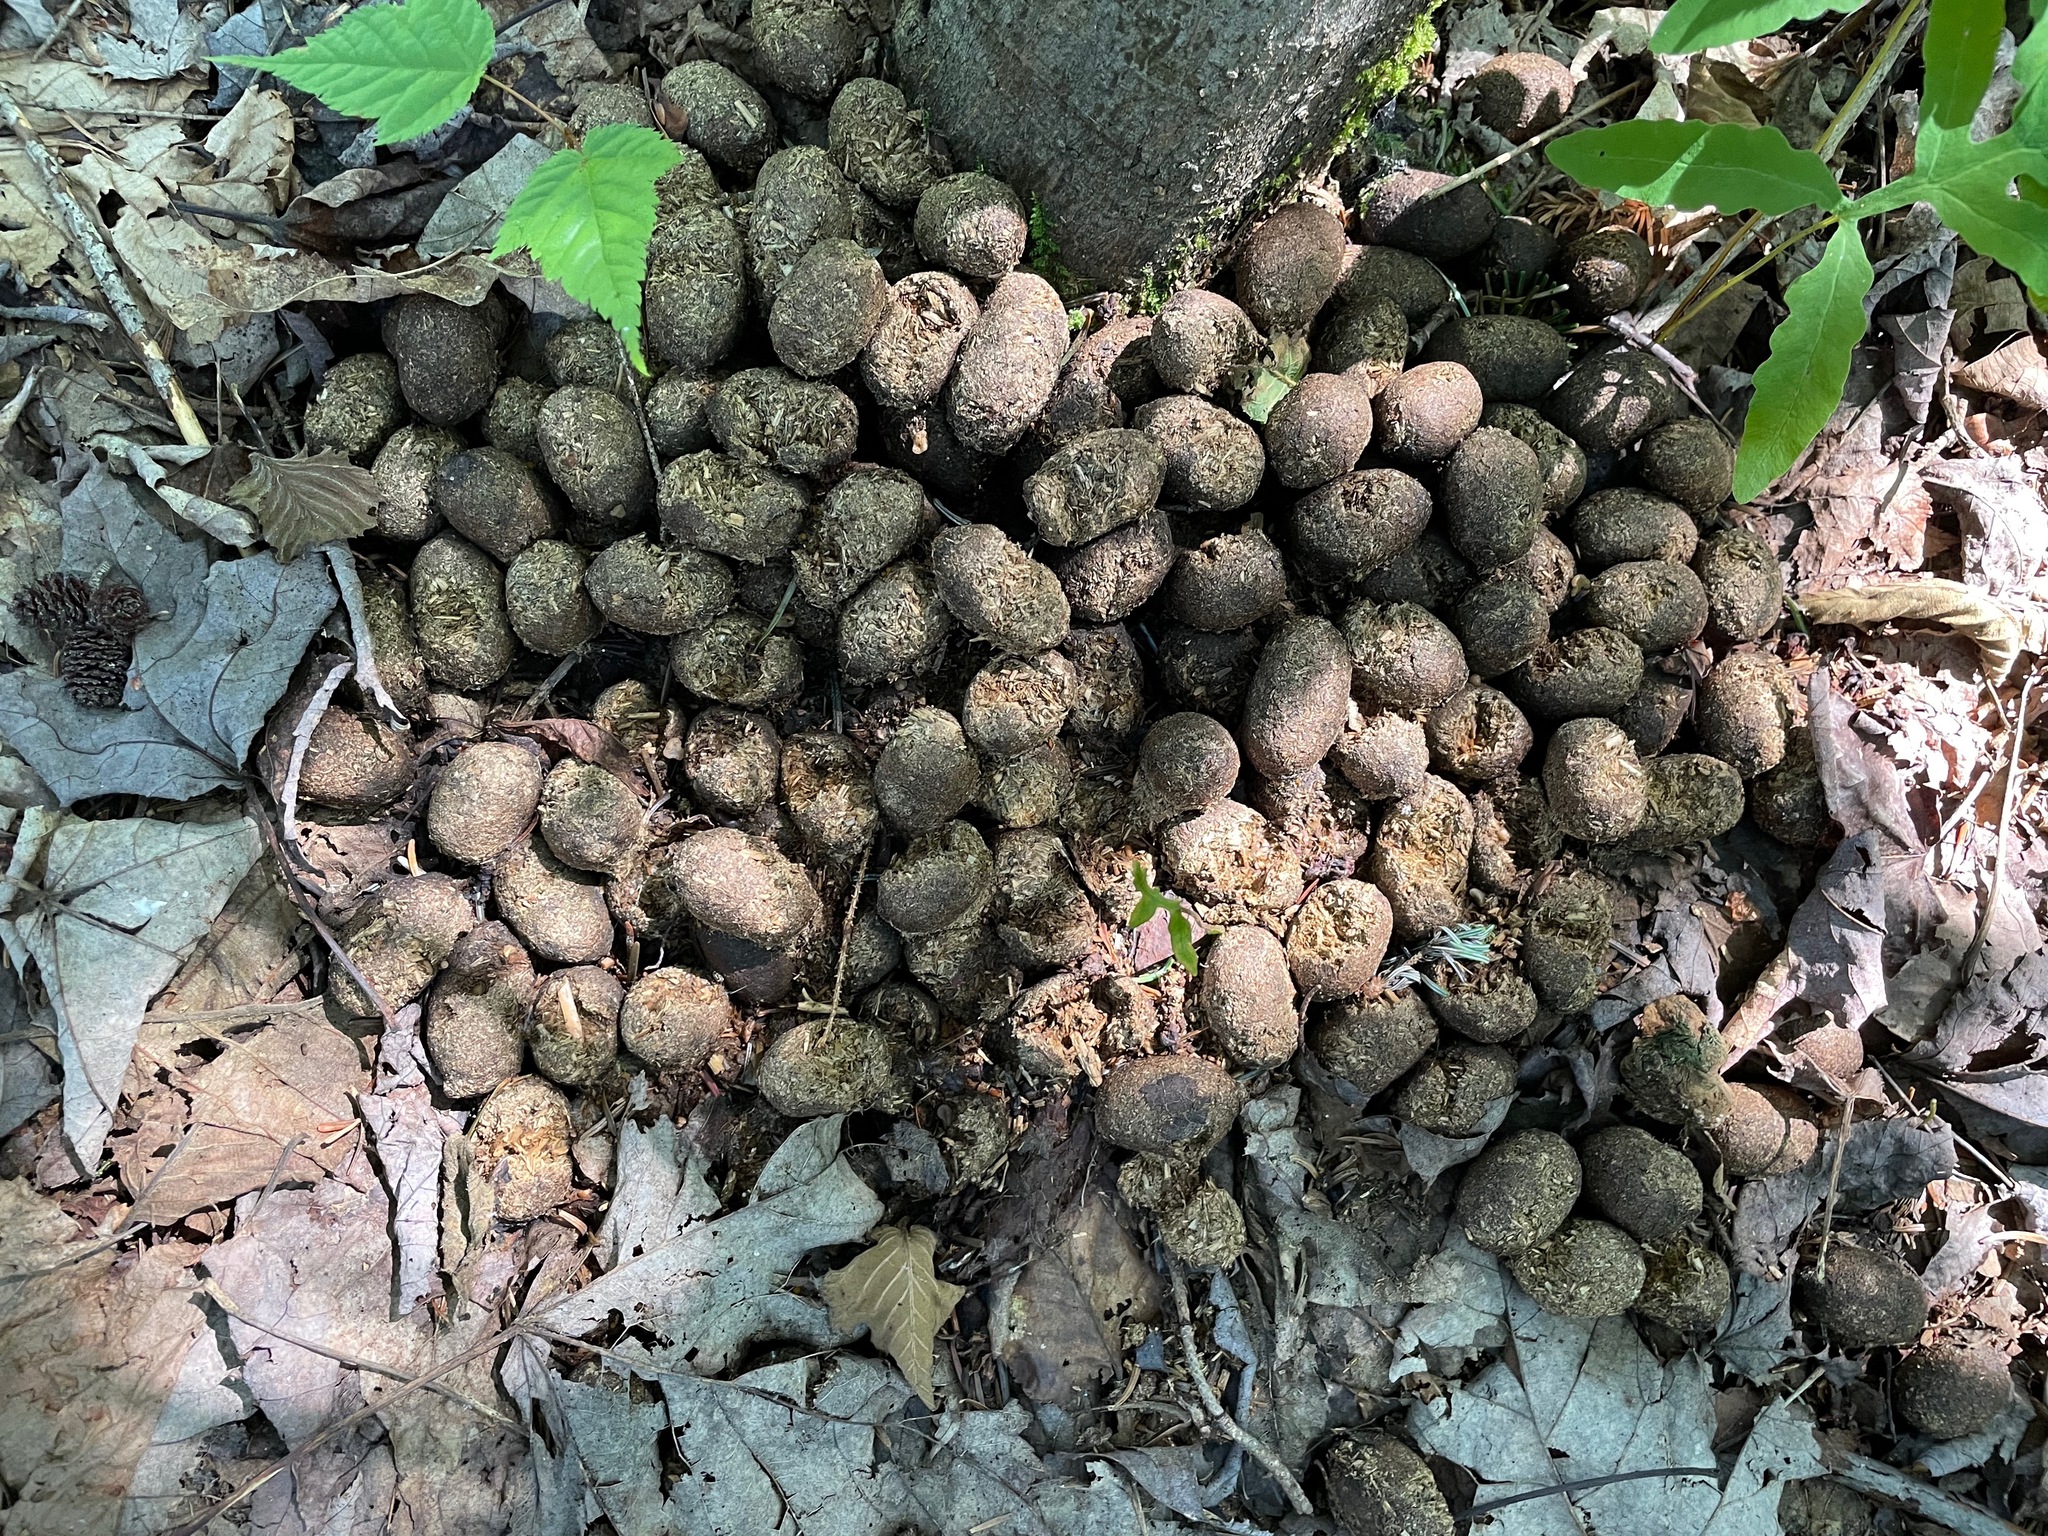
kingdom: Animalia
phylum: Chordata
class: Mammalia
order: Artiodactyla
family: Cervidae
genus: Alces
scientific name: Alces alces
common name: Moose
